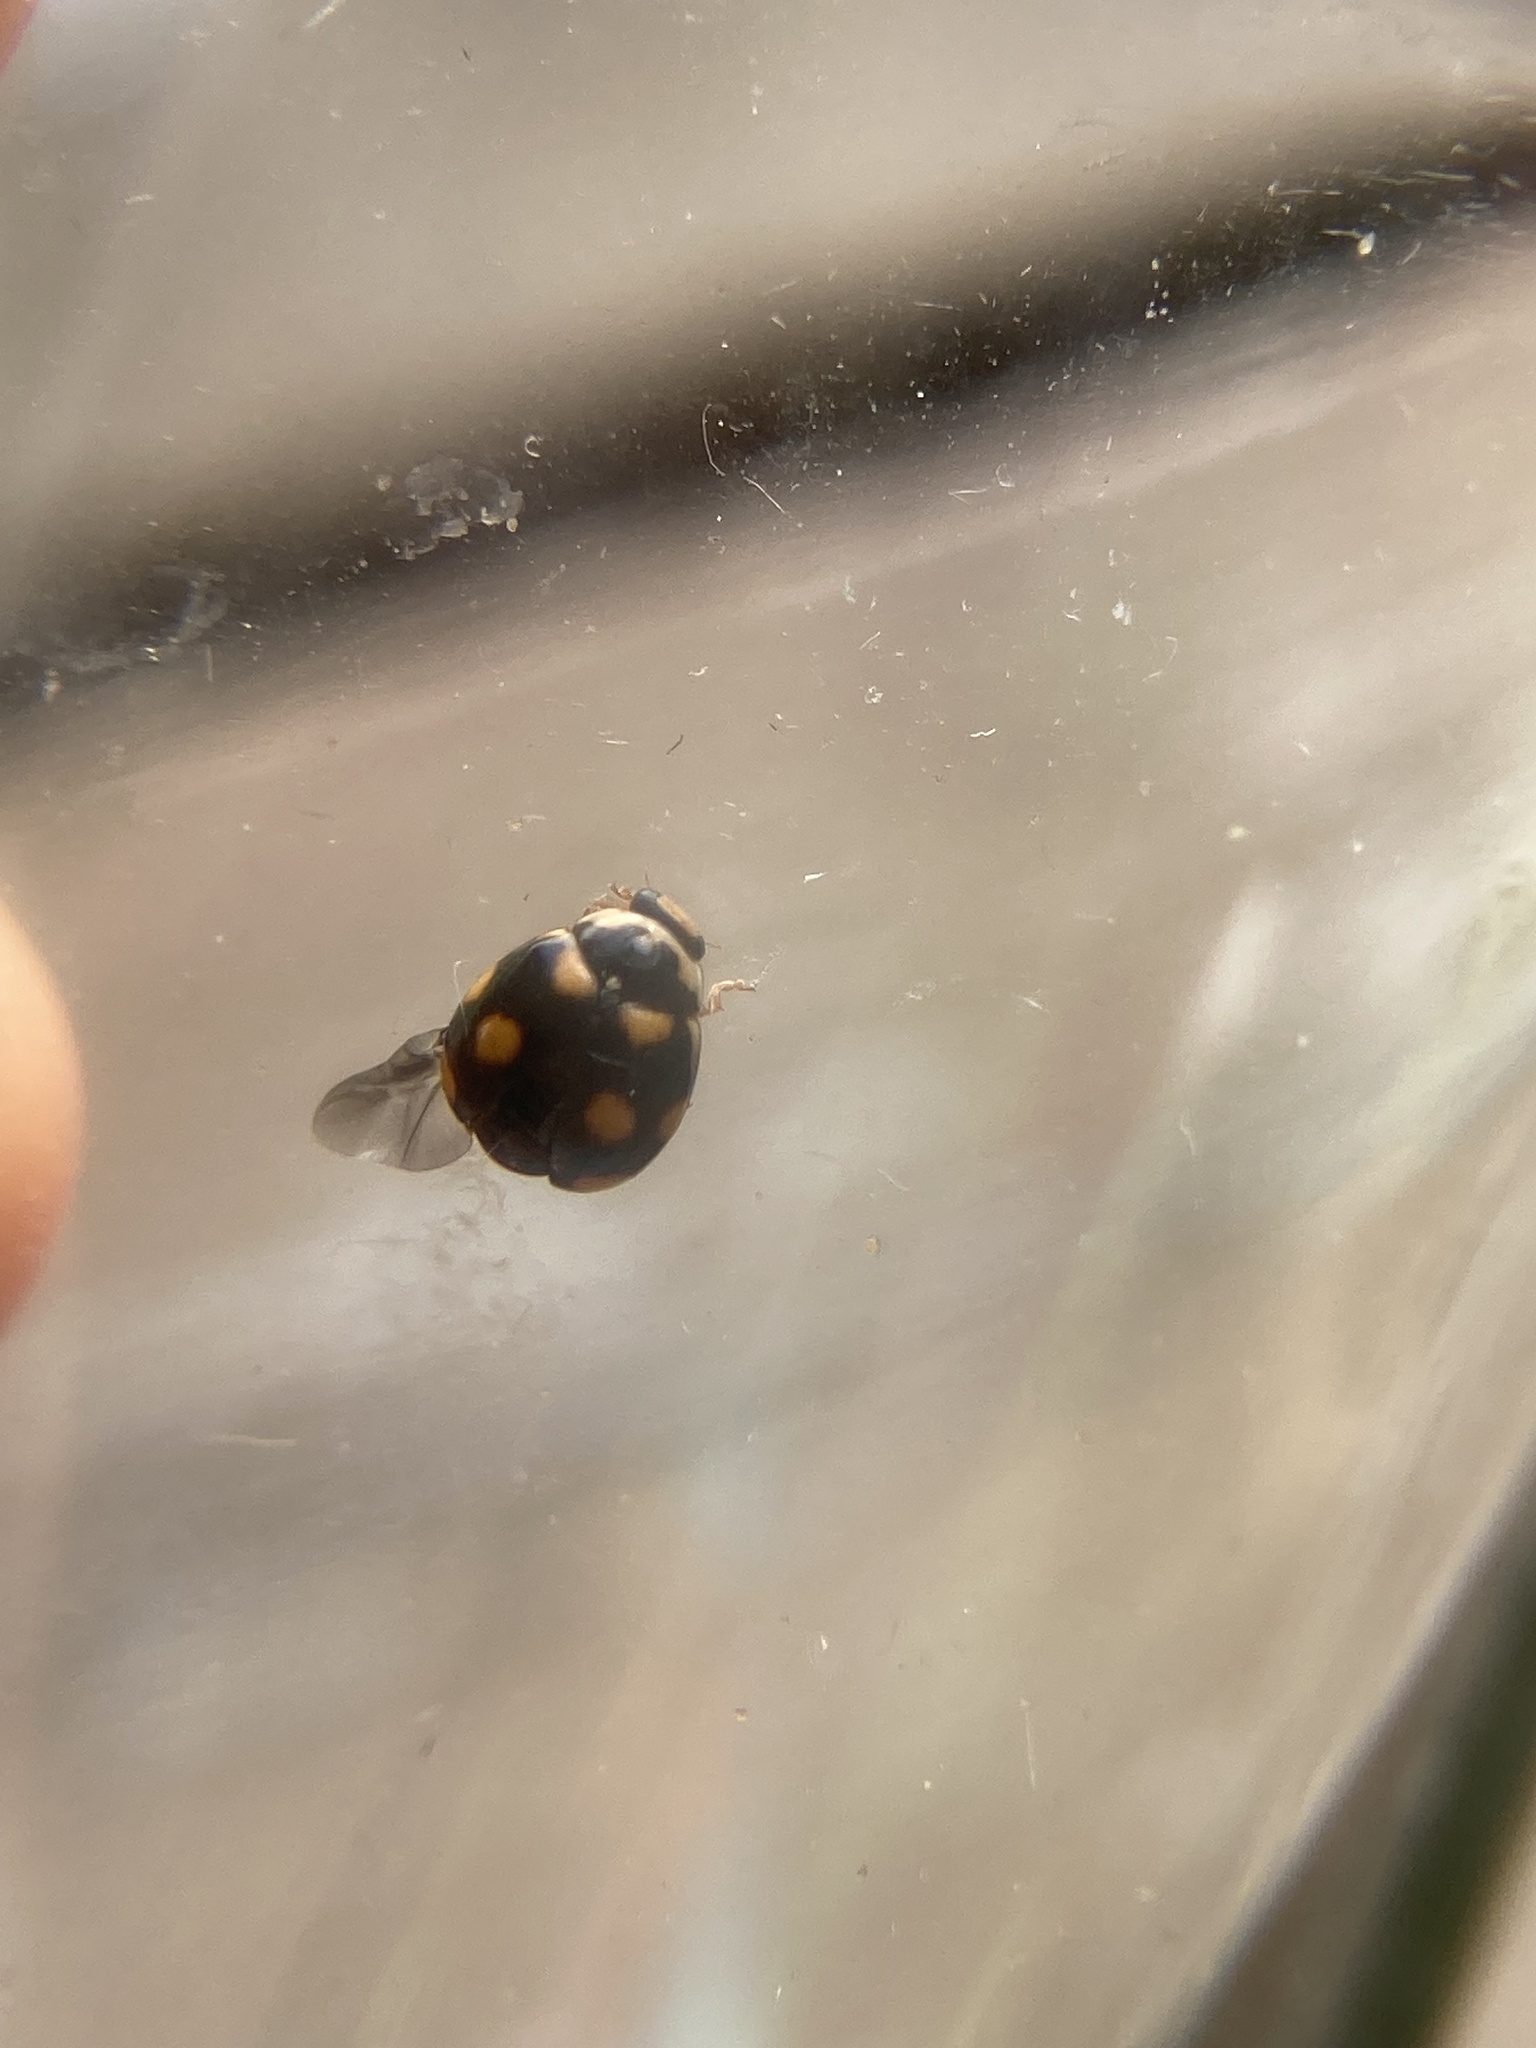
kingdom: Animalia
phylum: Arthropoda
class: Insecta
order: Coleoptera
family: Coccinellidae
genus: Brachiacantha
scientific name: Brachiacantha ursina
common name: Ursine spurleg lady beetle
